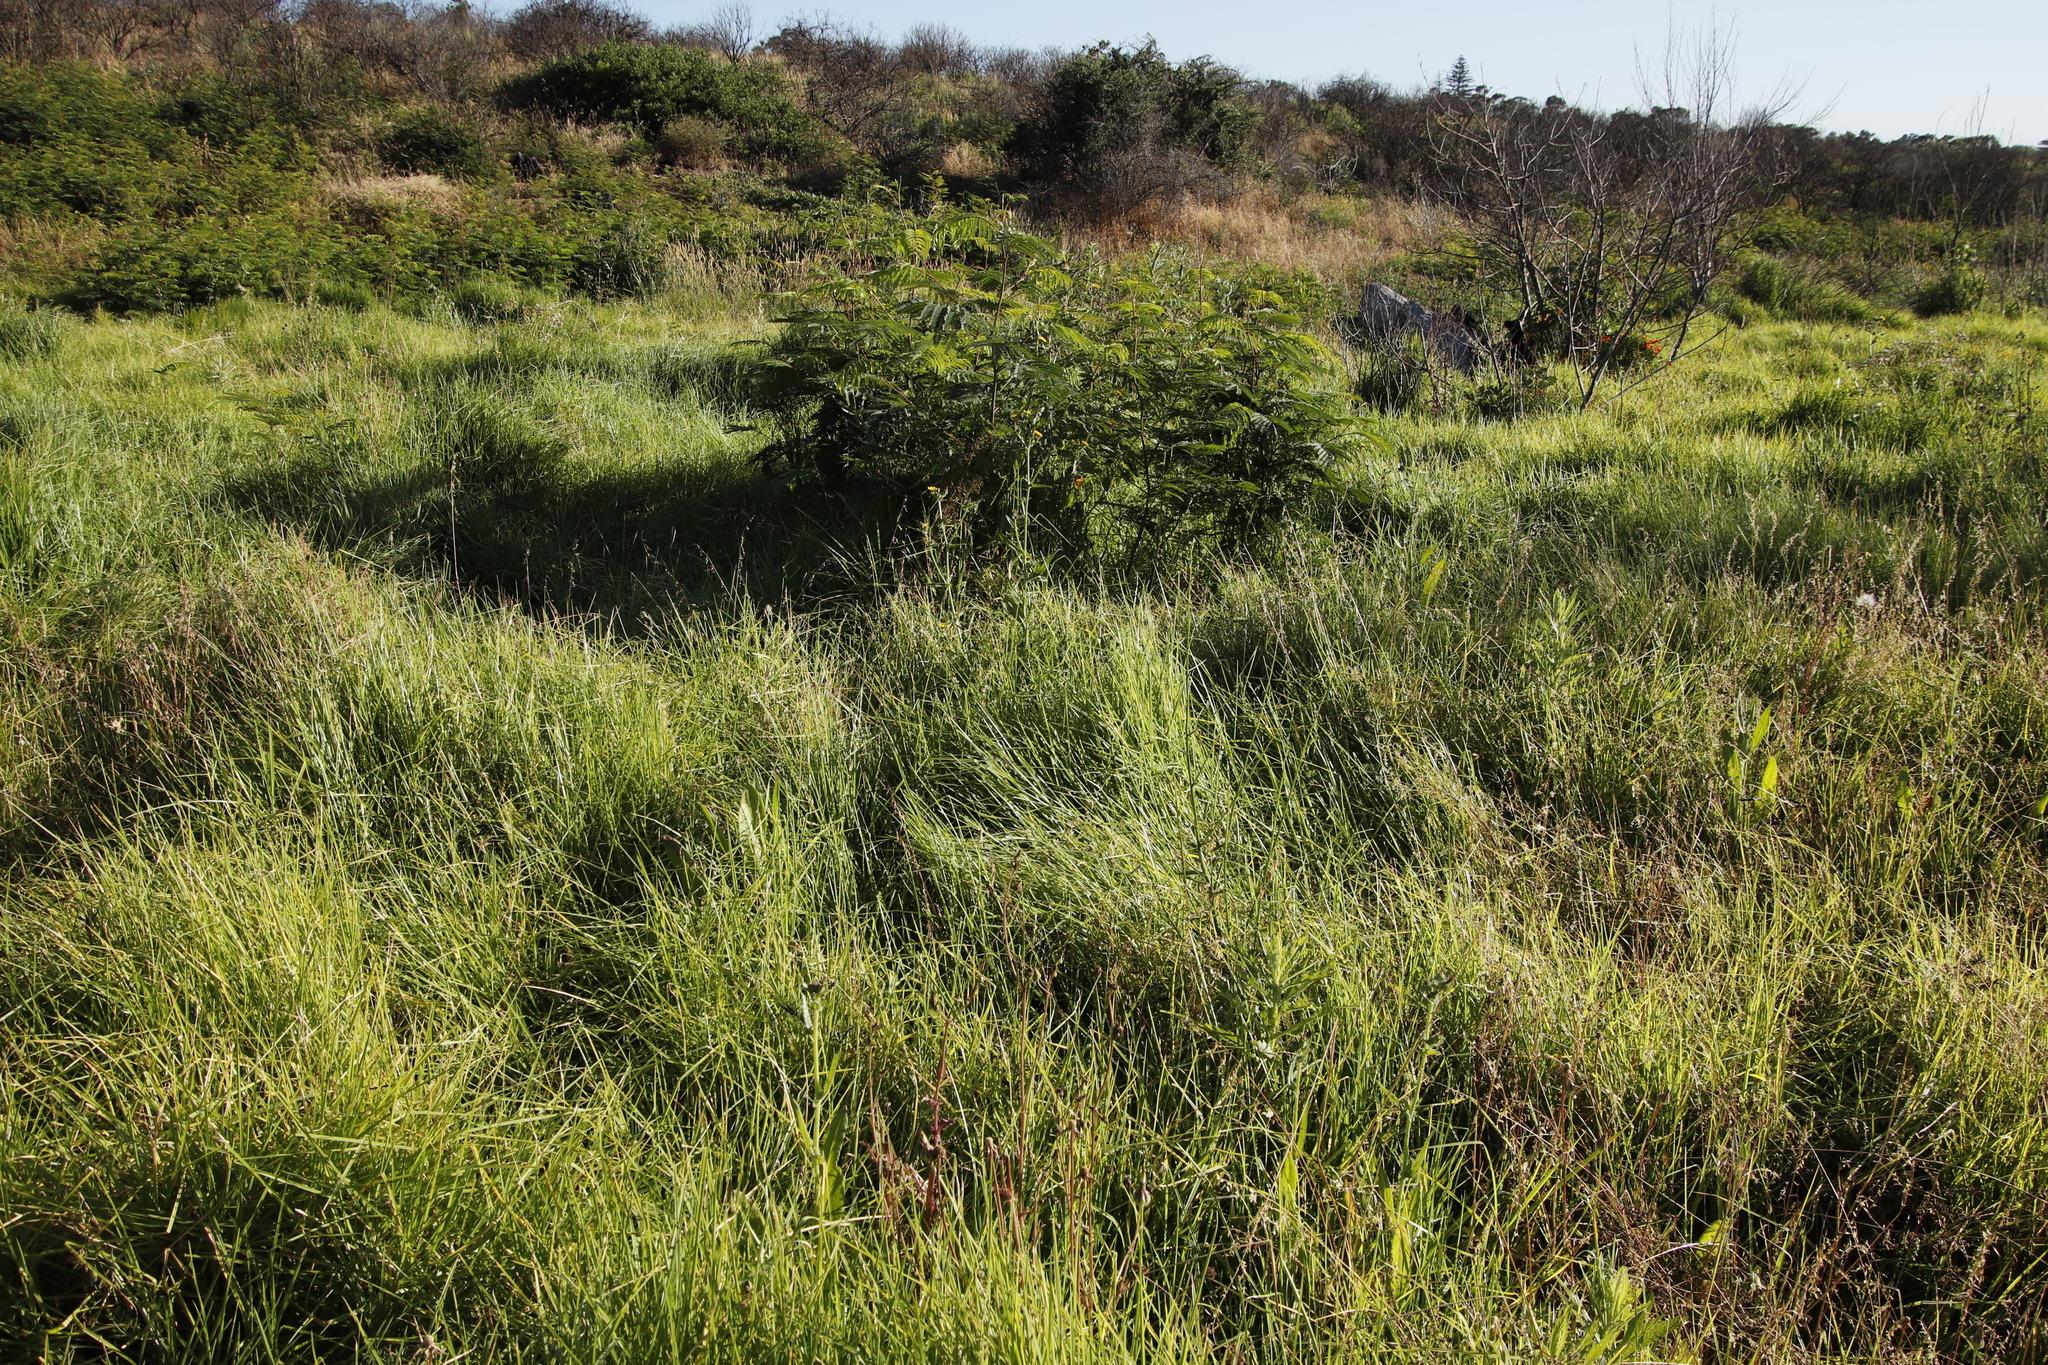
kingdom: Plantae
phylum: Tracheophyta
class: Liliopsida
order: Poales
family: Poaceae
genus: Cenchrus
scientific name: Cenchrus clandestinus
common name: Kikuyugrass
